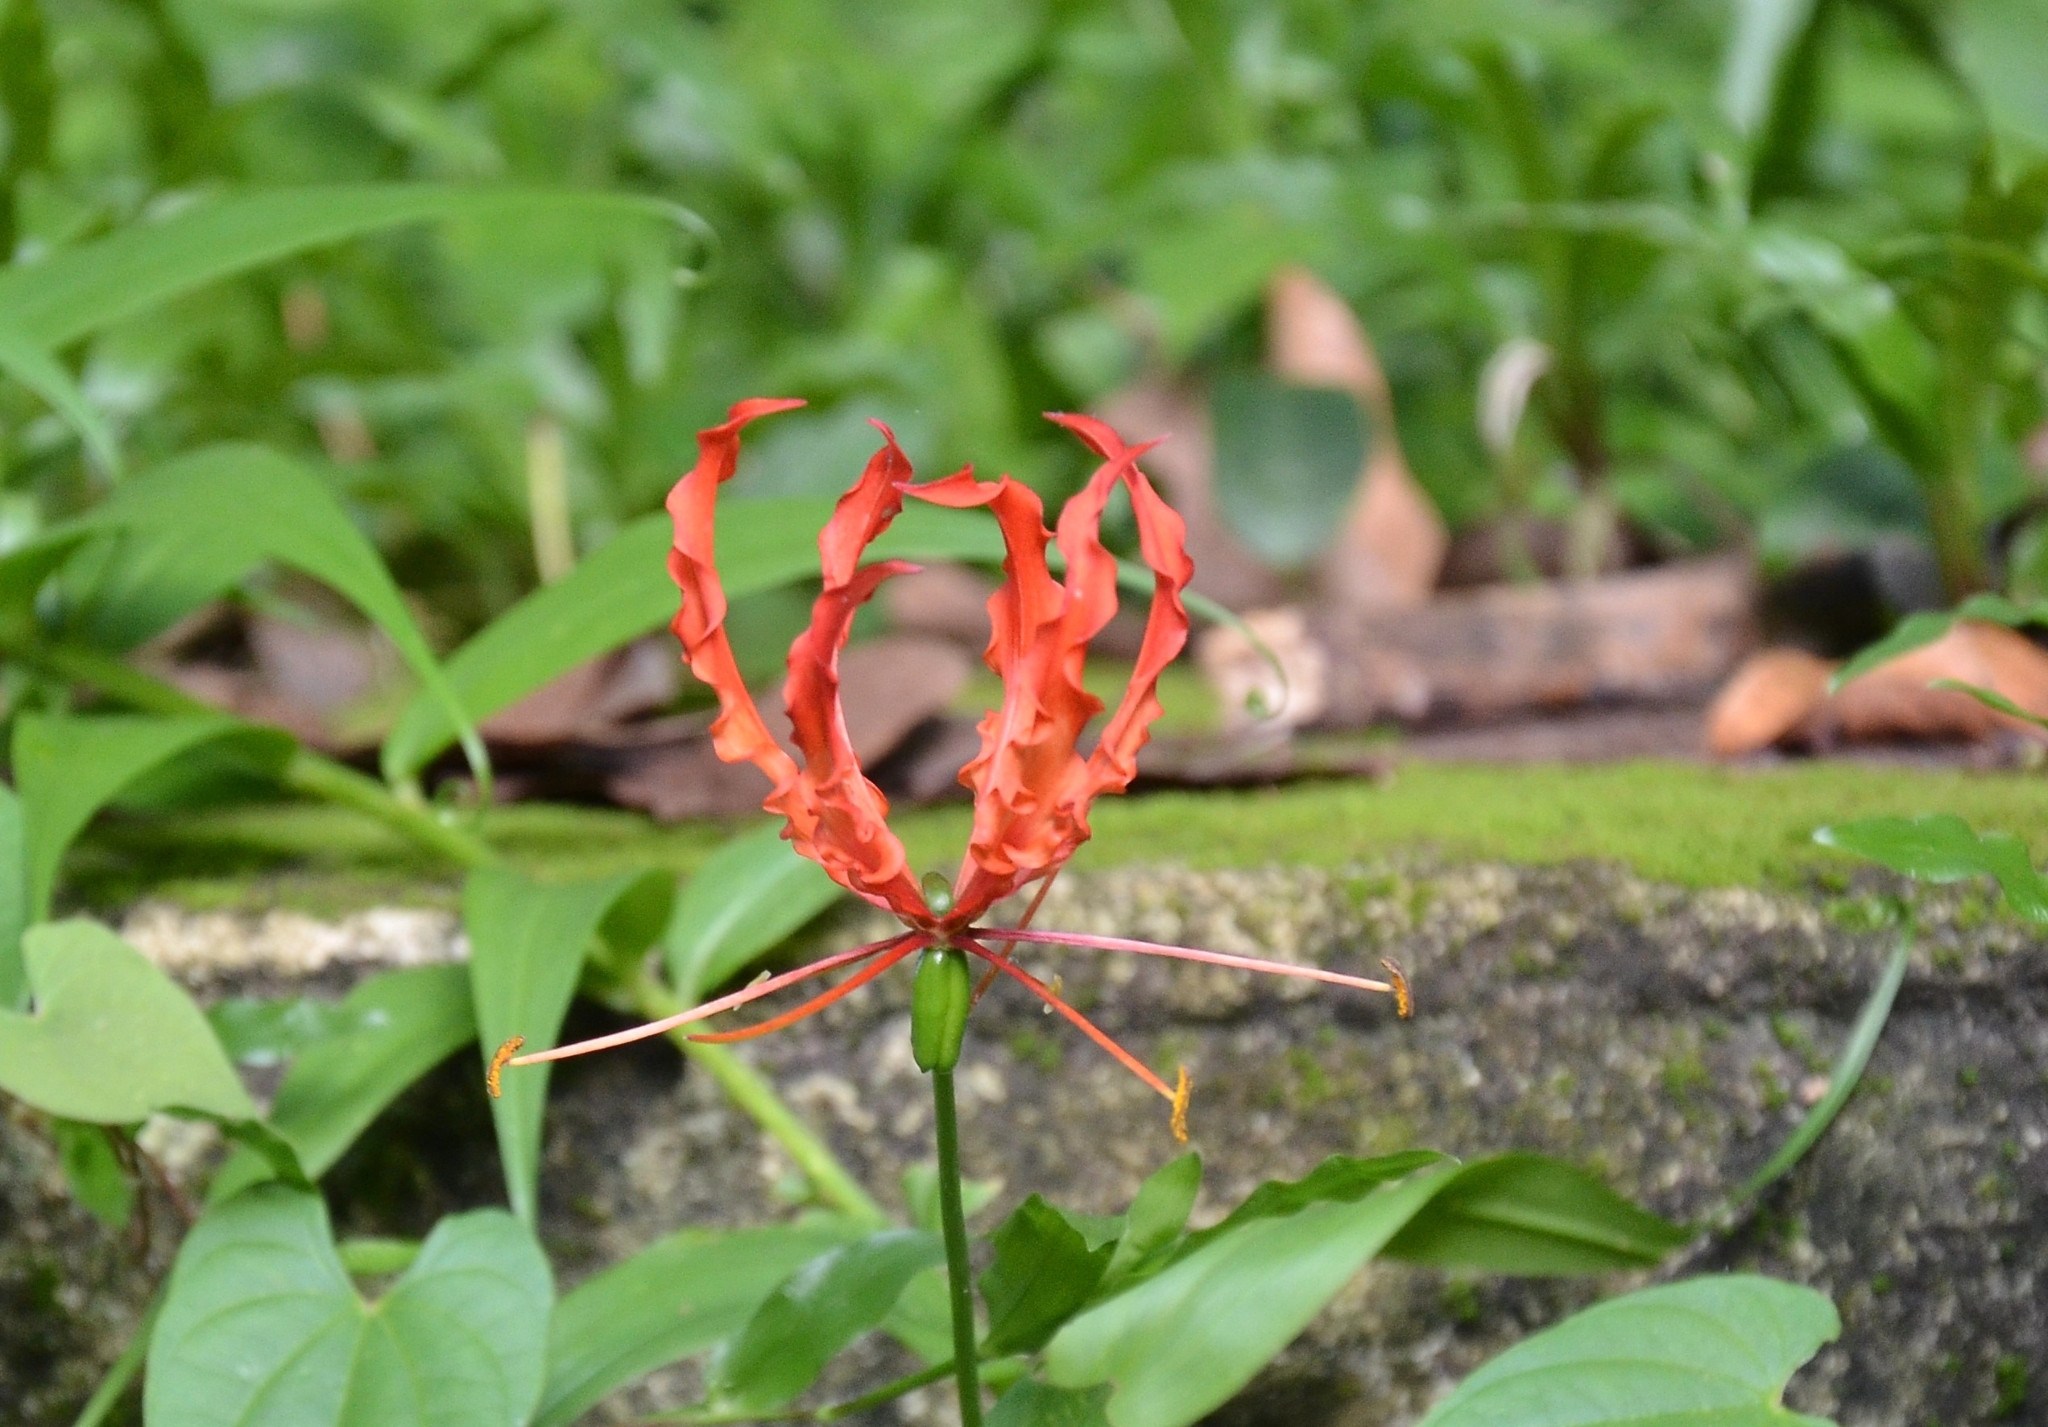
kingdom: Plantae
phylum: Tracheophyta
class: Liliopsida
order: Liliales
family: Colchicaceae
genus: Gloriosa
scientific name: Gloriosa superba
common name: Flame lily
